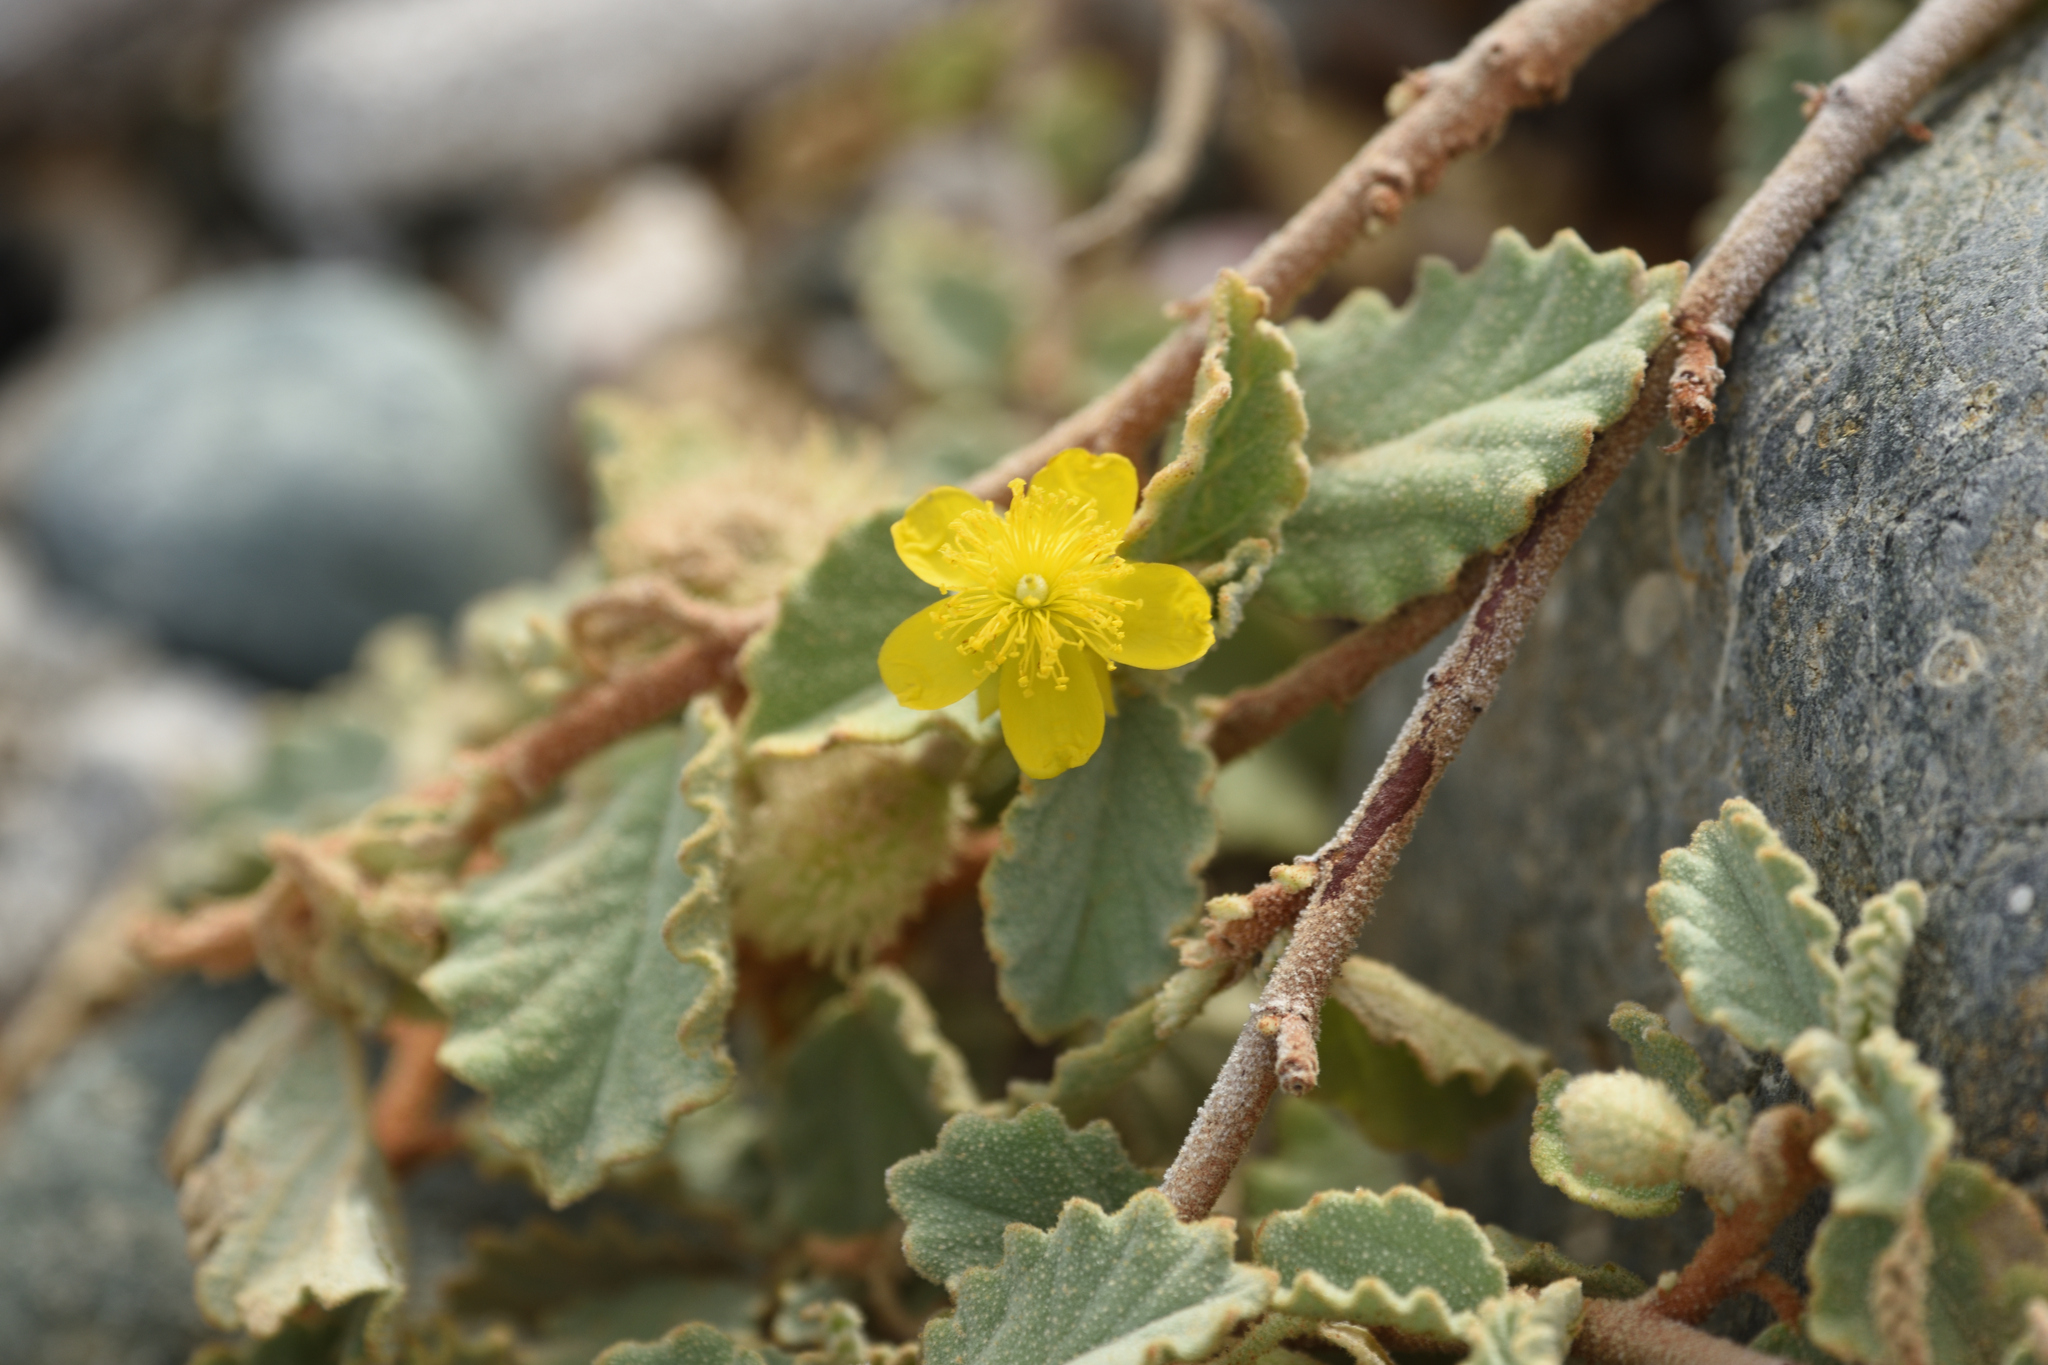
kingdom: Plantae
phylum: Tracheophyta
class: Magnoliopsida
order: Malvales
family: Malvaceae
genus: Corchorus
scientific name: Corchorus hirsutus
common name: Jackswitch
